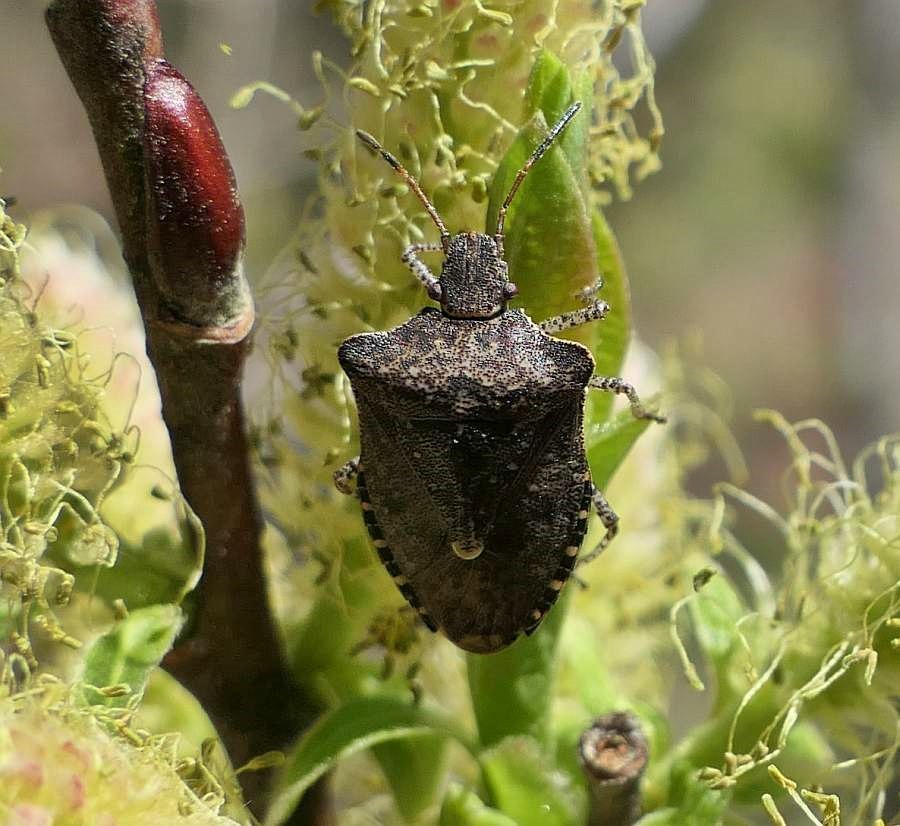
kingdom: Animalia
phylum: Arthropoda
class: Insecta
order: Hemiptera
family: Pentatomidae
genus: Euschistus
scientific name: Euschistus tristigmus
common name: Dusky stink bug
